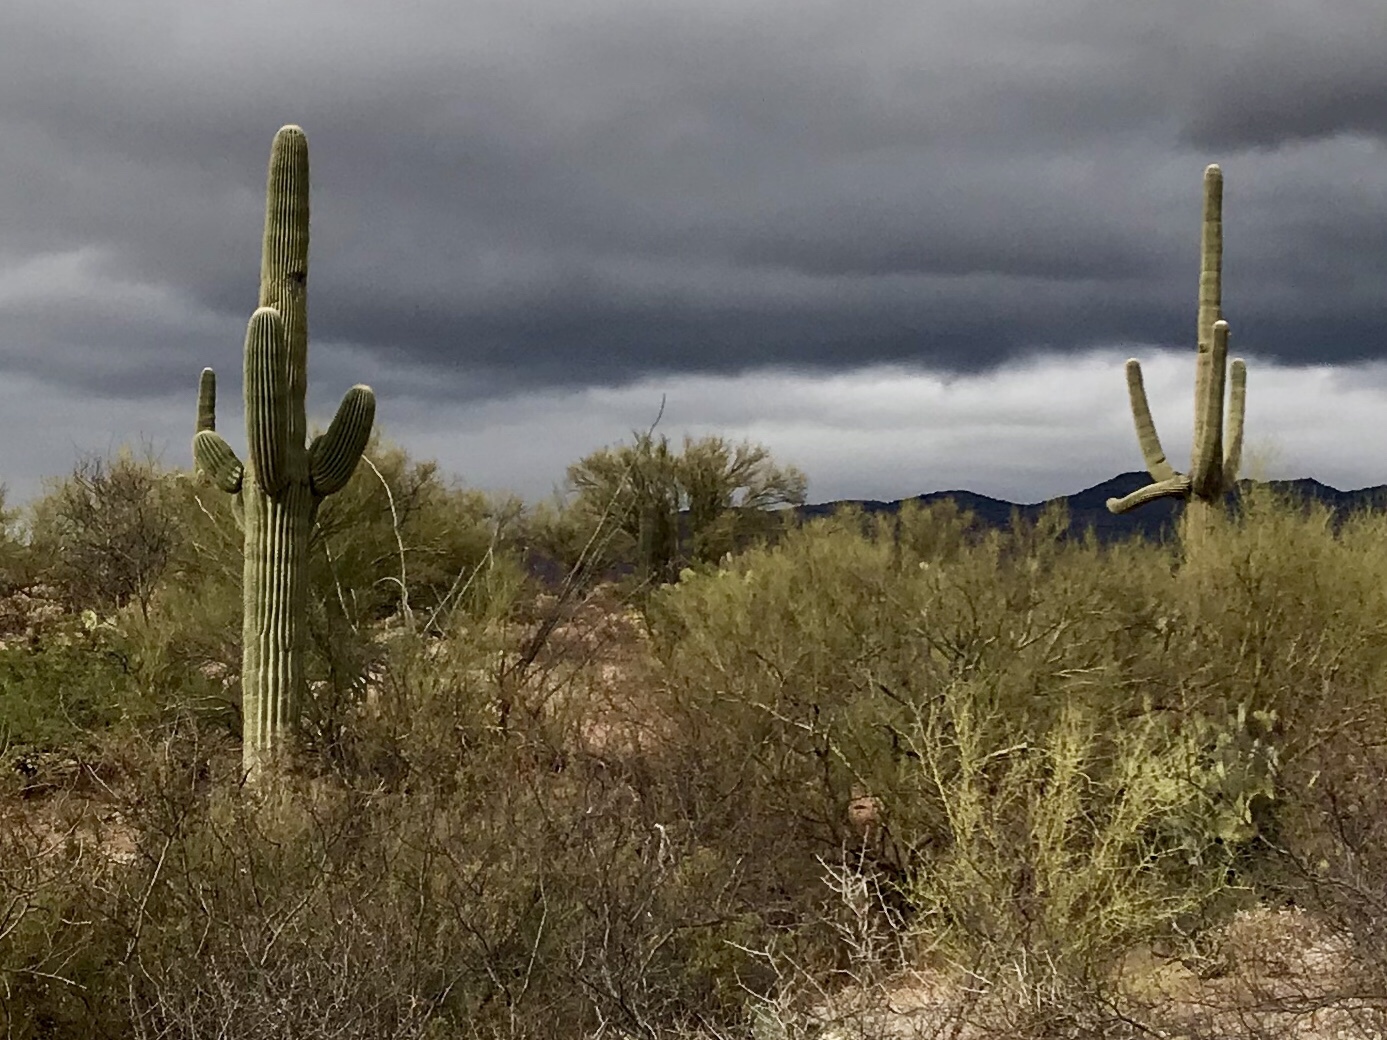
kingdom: Plantae
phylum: Tracheophyta
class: Magnoliopsida
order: Caryophyllales
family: Cactaceae
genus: Carnegiea
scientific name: Carnegiea gigantea
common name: Saguaro
